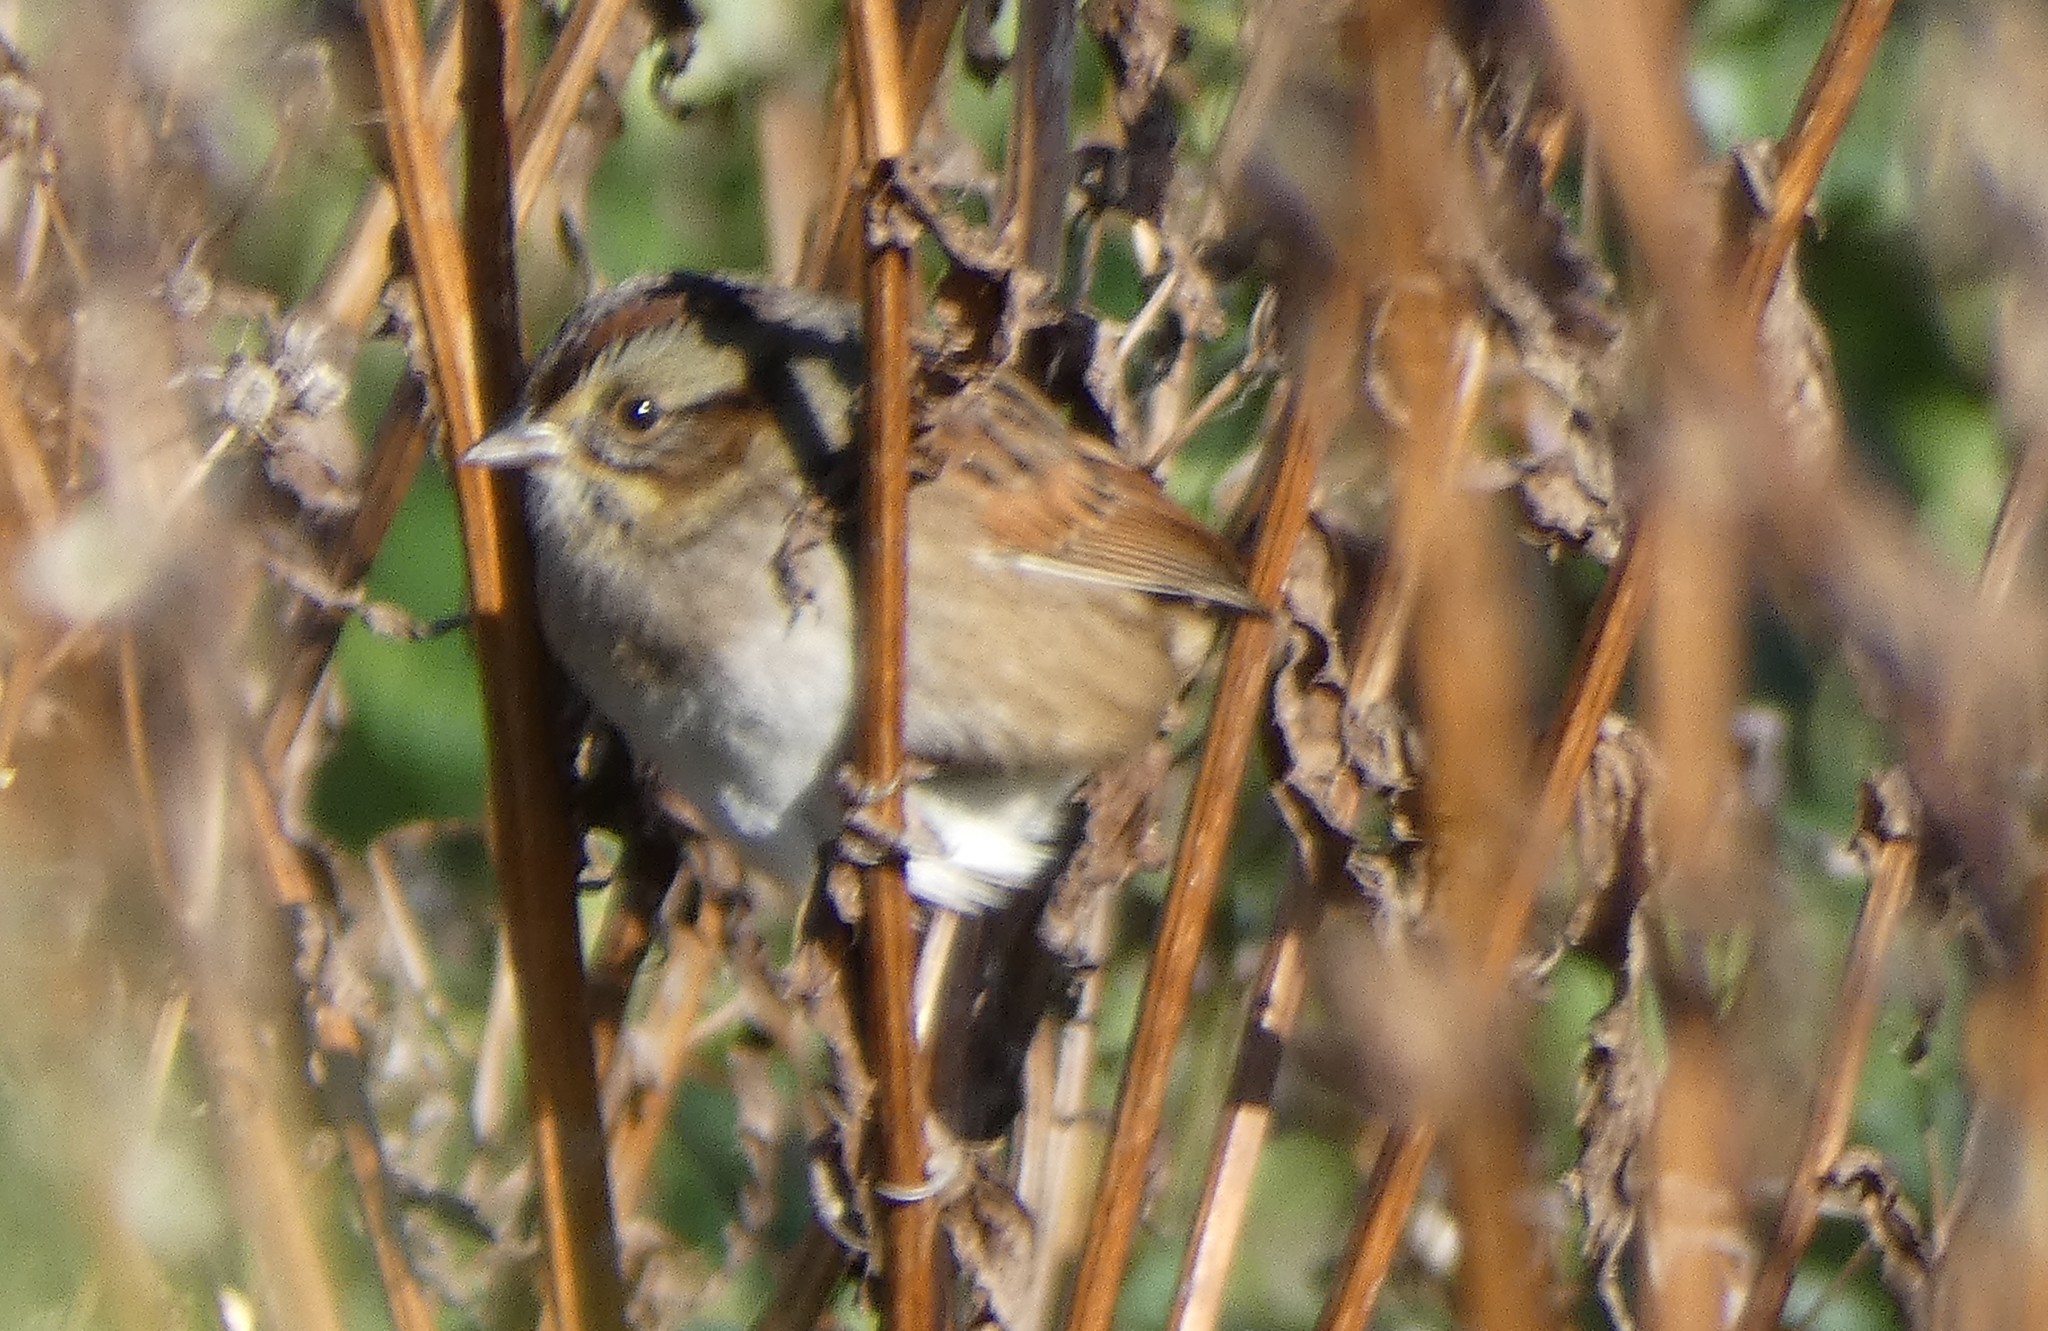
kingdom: Animalia
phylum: Chordata
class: Aves
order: Passeriformes
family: Passerellidae
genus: Melospiza
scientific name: Melospiza georgiana
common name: Swamp sparrow
